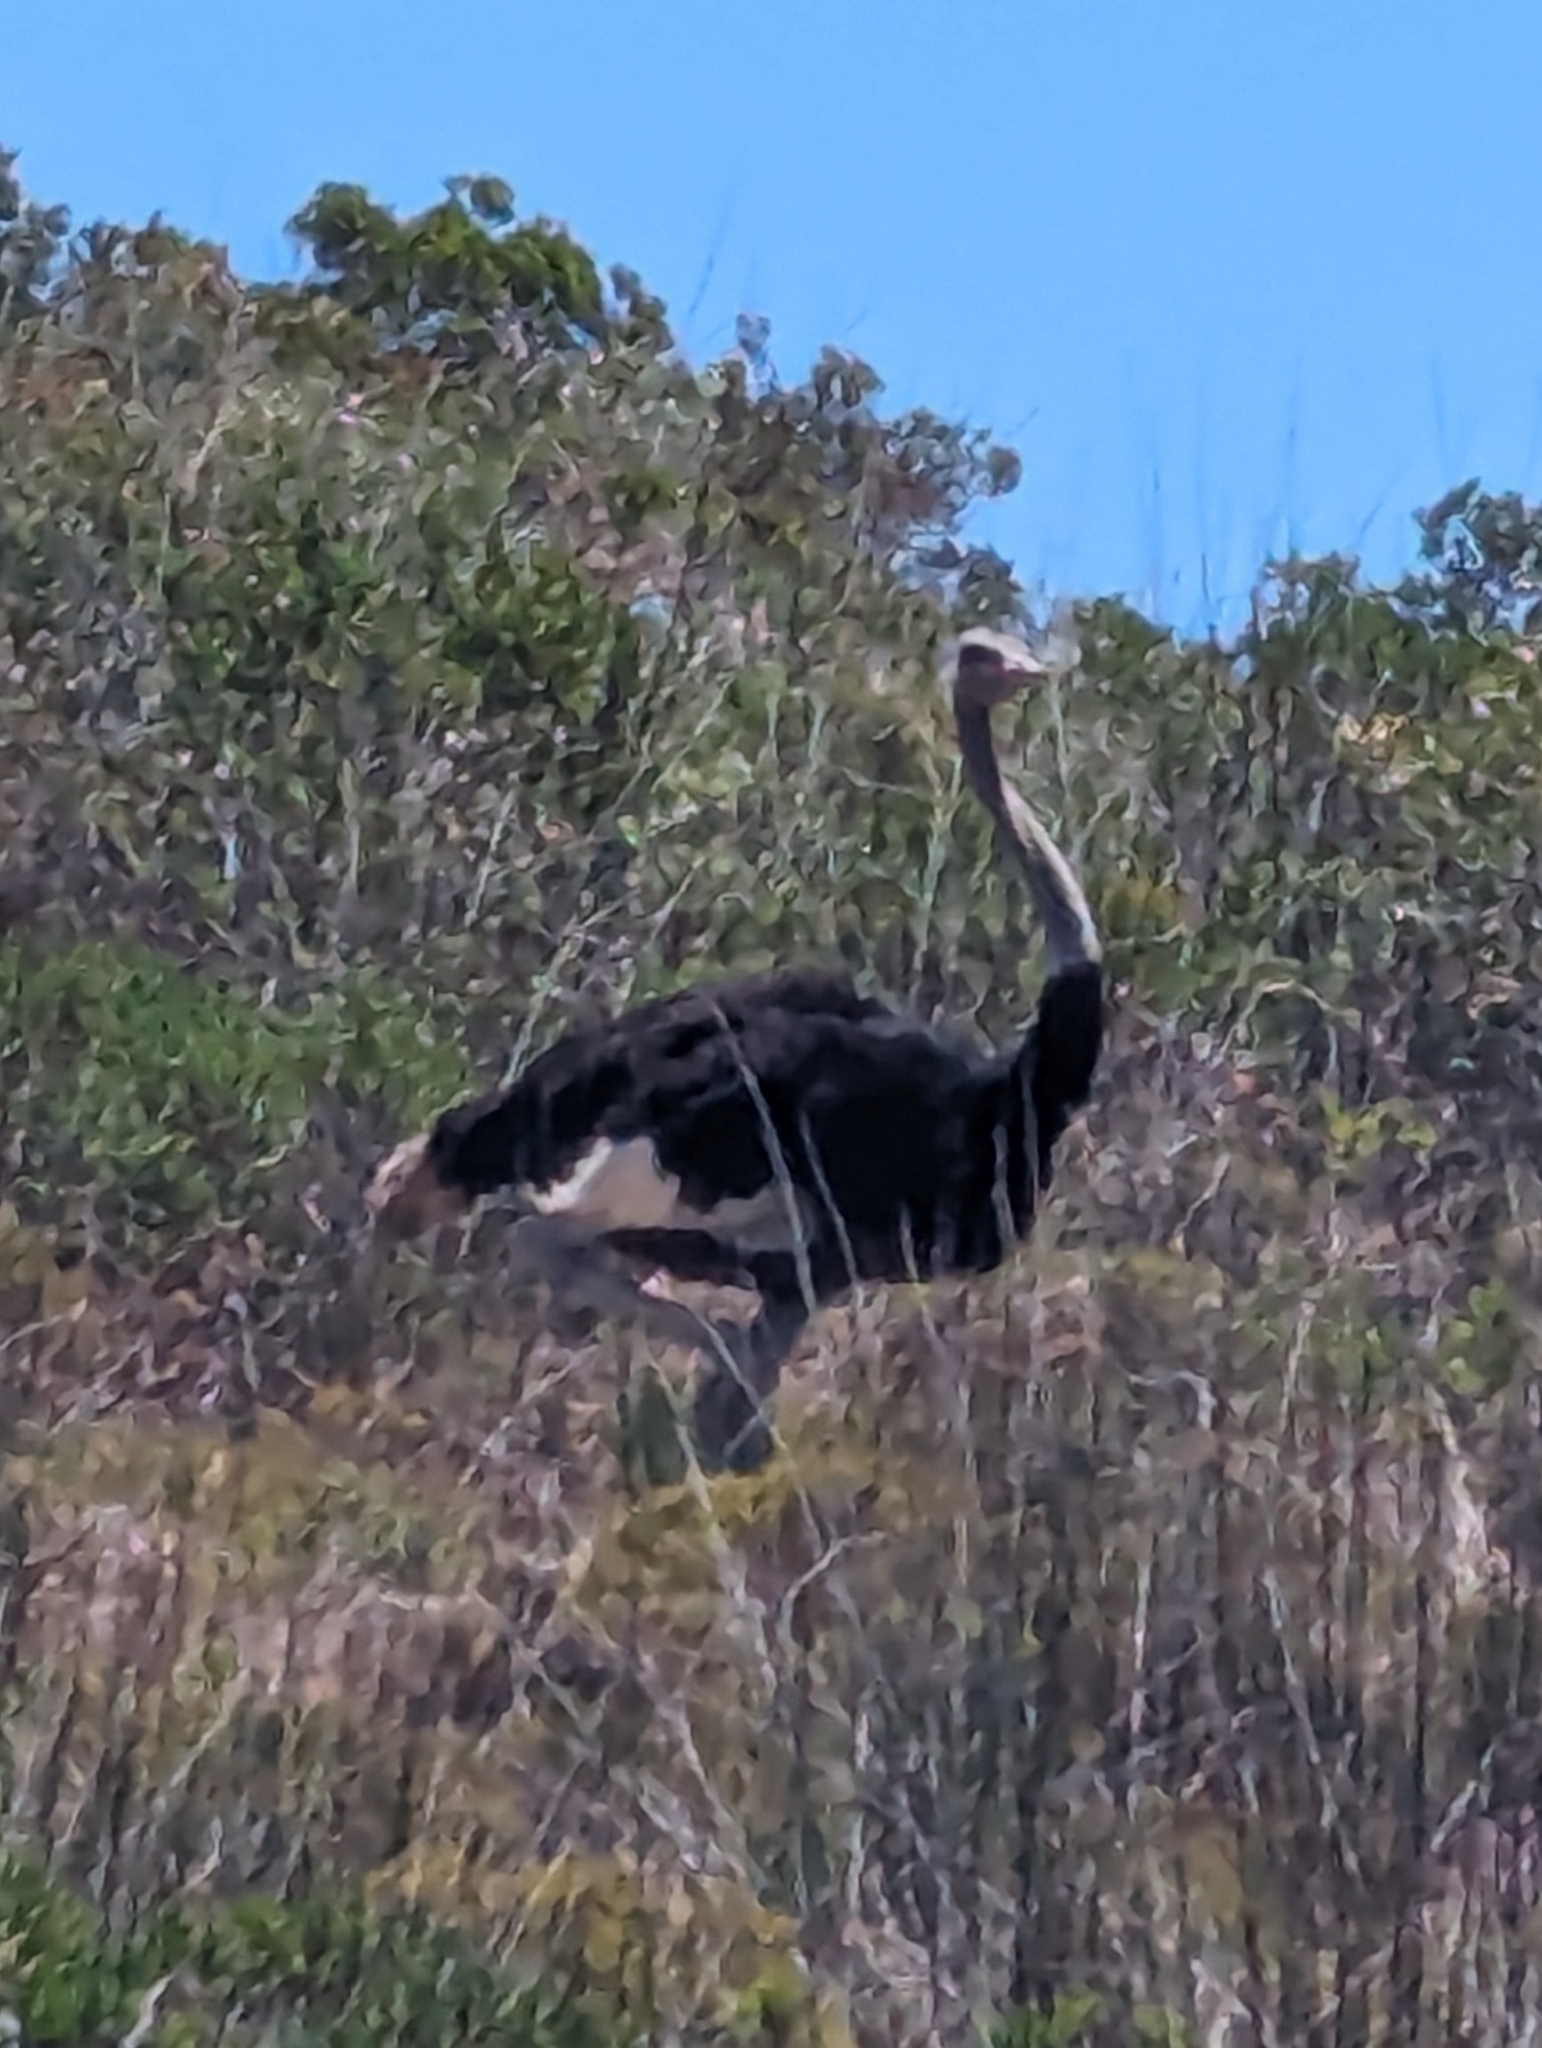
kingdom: Animalia
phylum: Chordata
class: Aves
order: Struthioniformes
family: Struthionidae
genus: Struthio
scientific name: Struthio camelus
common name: Common ostrich
